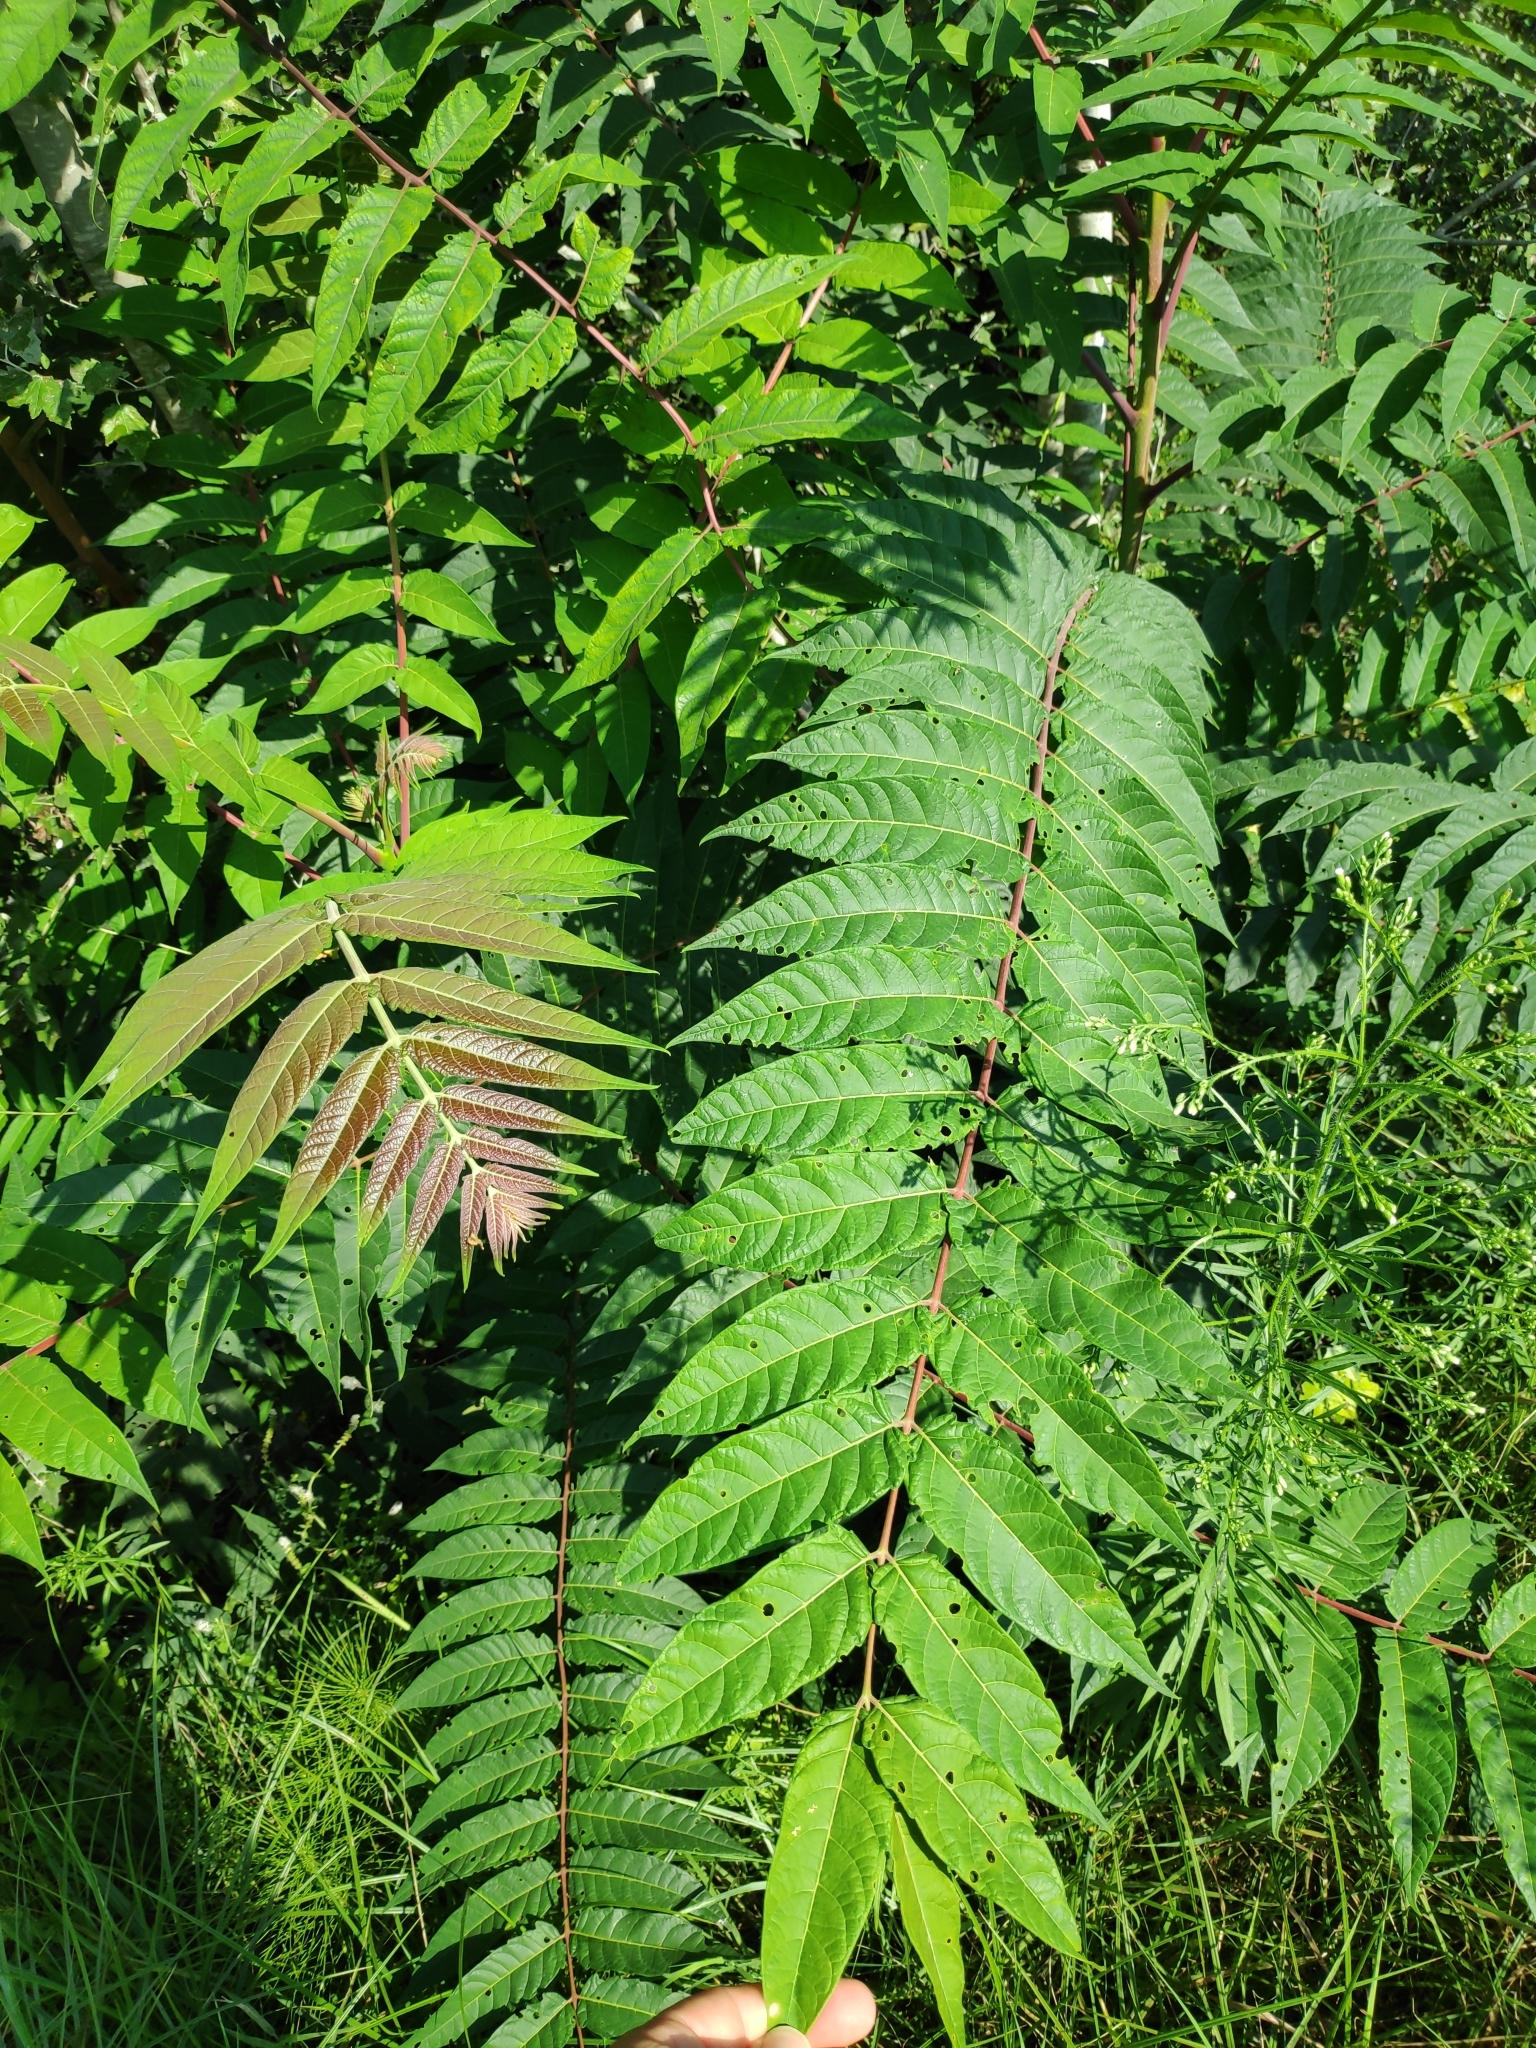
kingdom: Plantae
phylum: Tracheophyta
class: Magnoliopsida
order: Sapindales
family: Simaroubaceae
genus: Ailanthus
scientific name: Ailanthus altissima
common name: Tree-of-heaven
